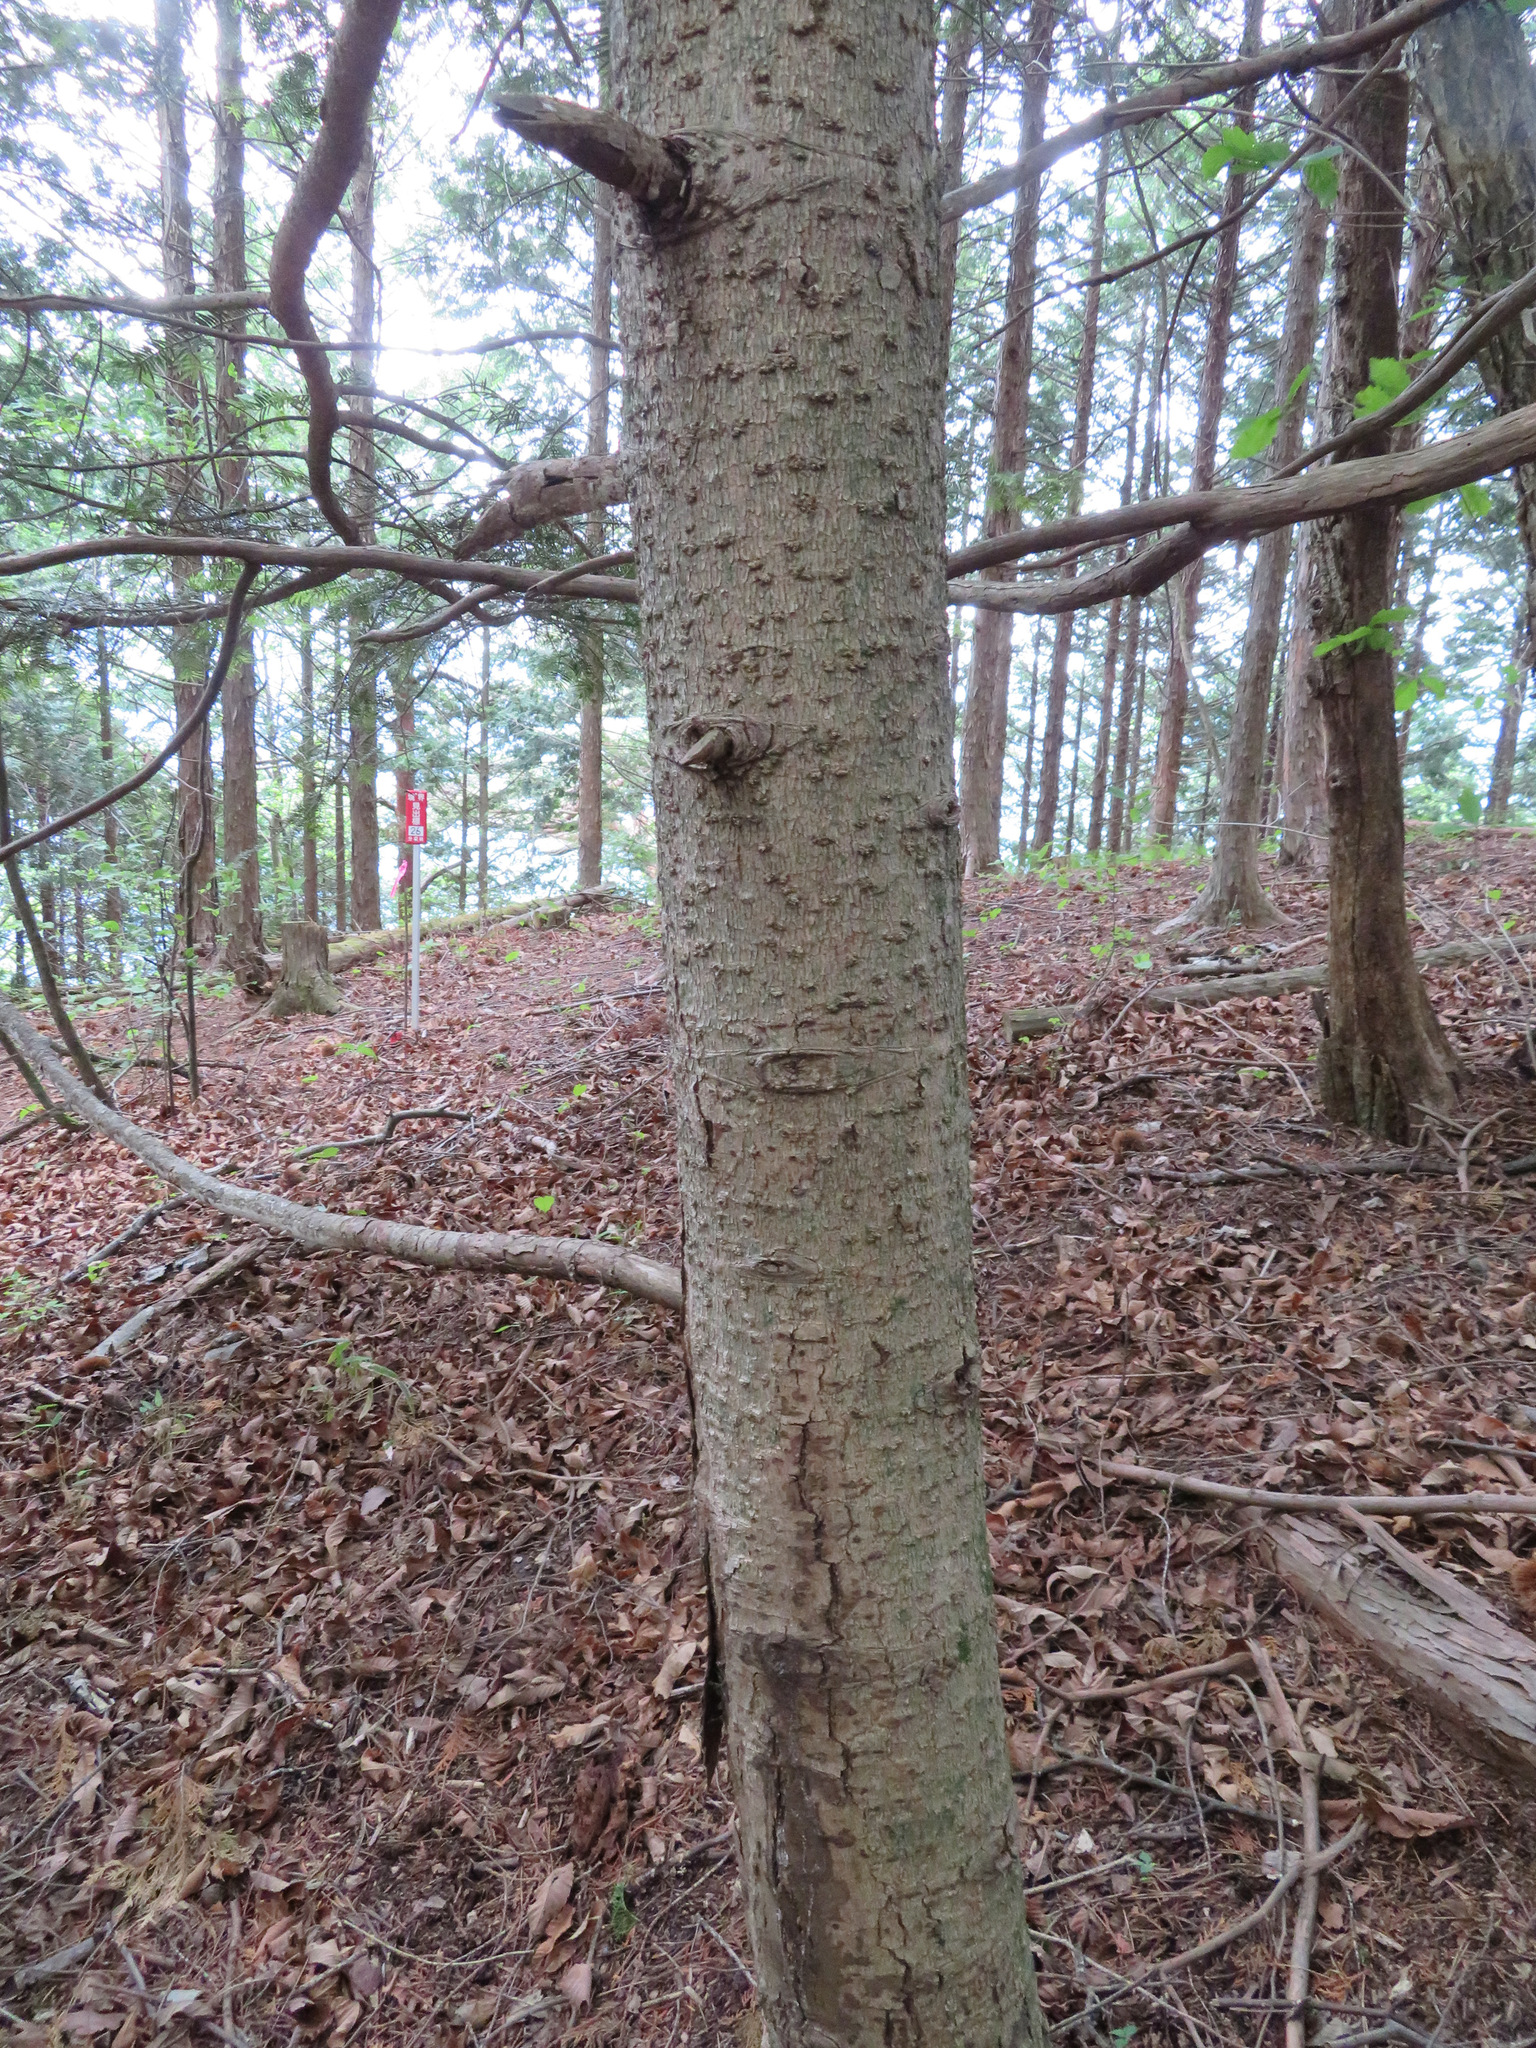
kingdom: Plantae
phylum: Tracheophyta
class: Pinopsida
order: Pinales
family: Pinaceae
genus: Abies
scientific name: Abies firma
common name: Momi fir
